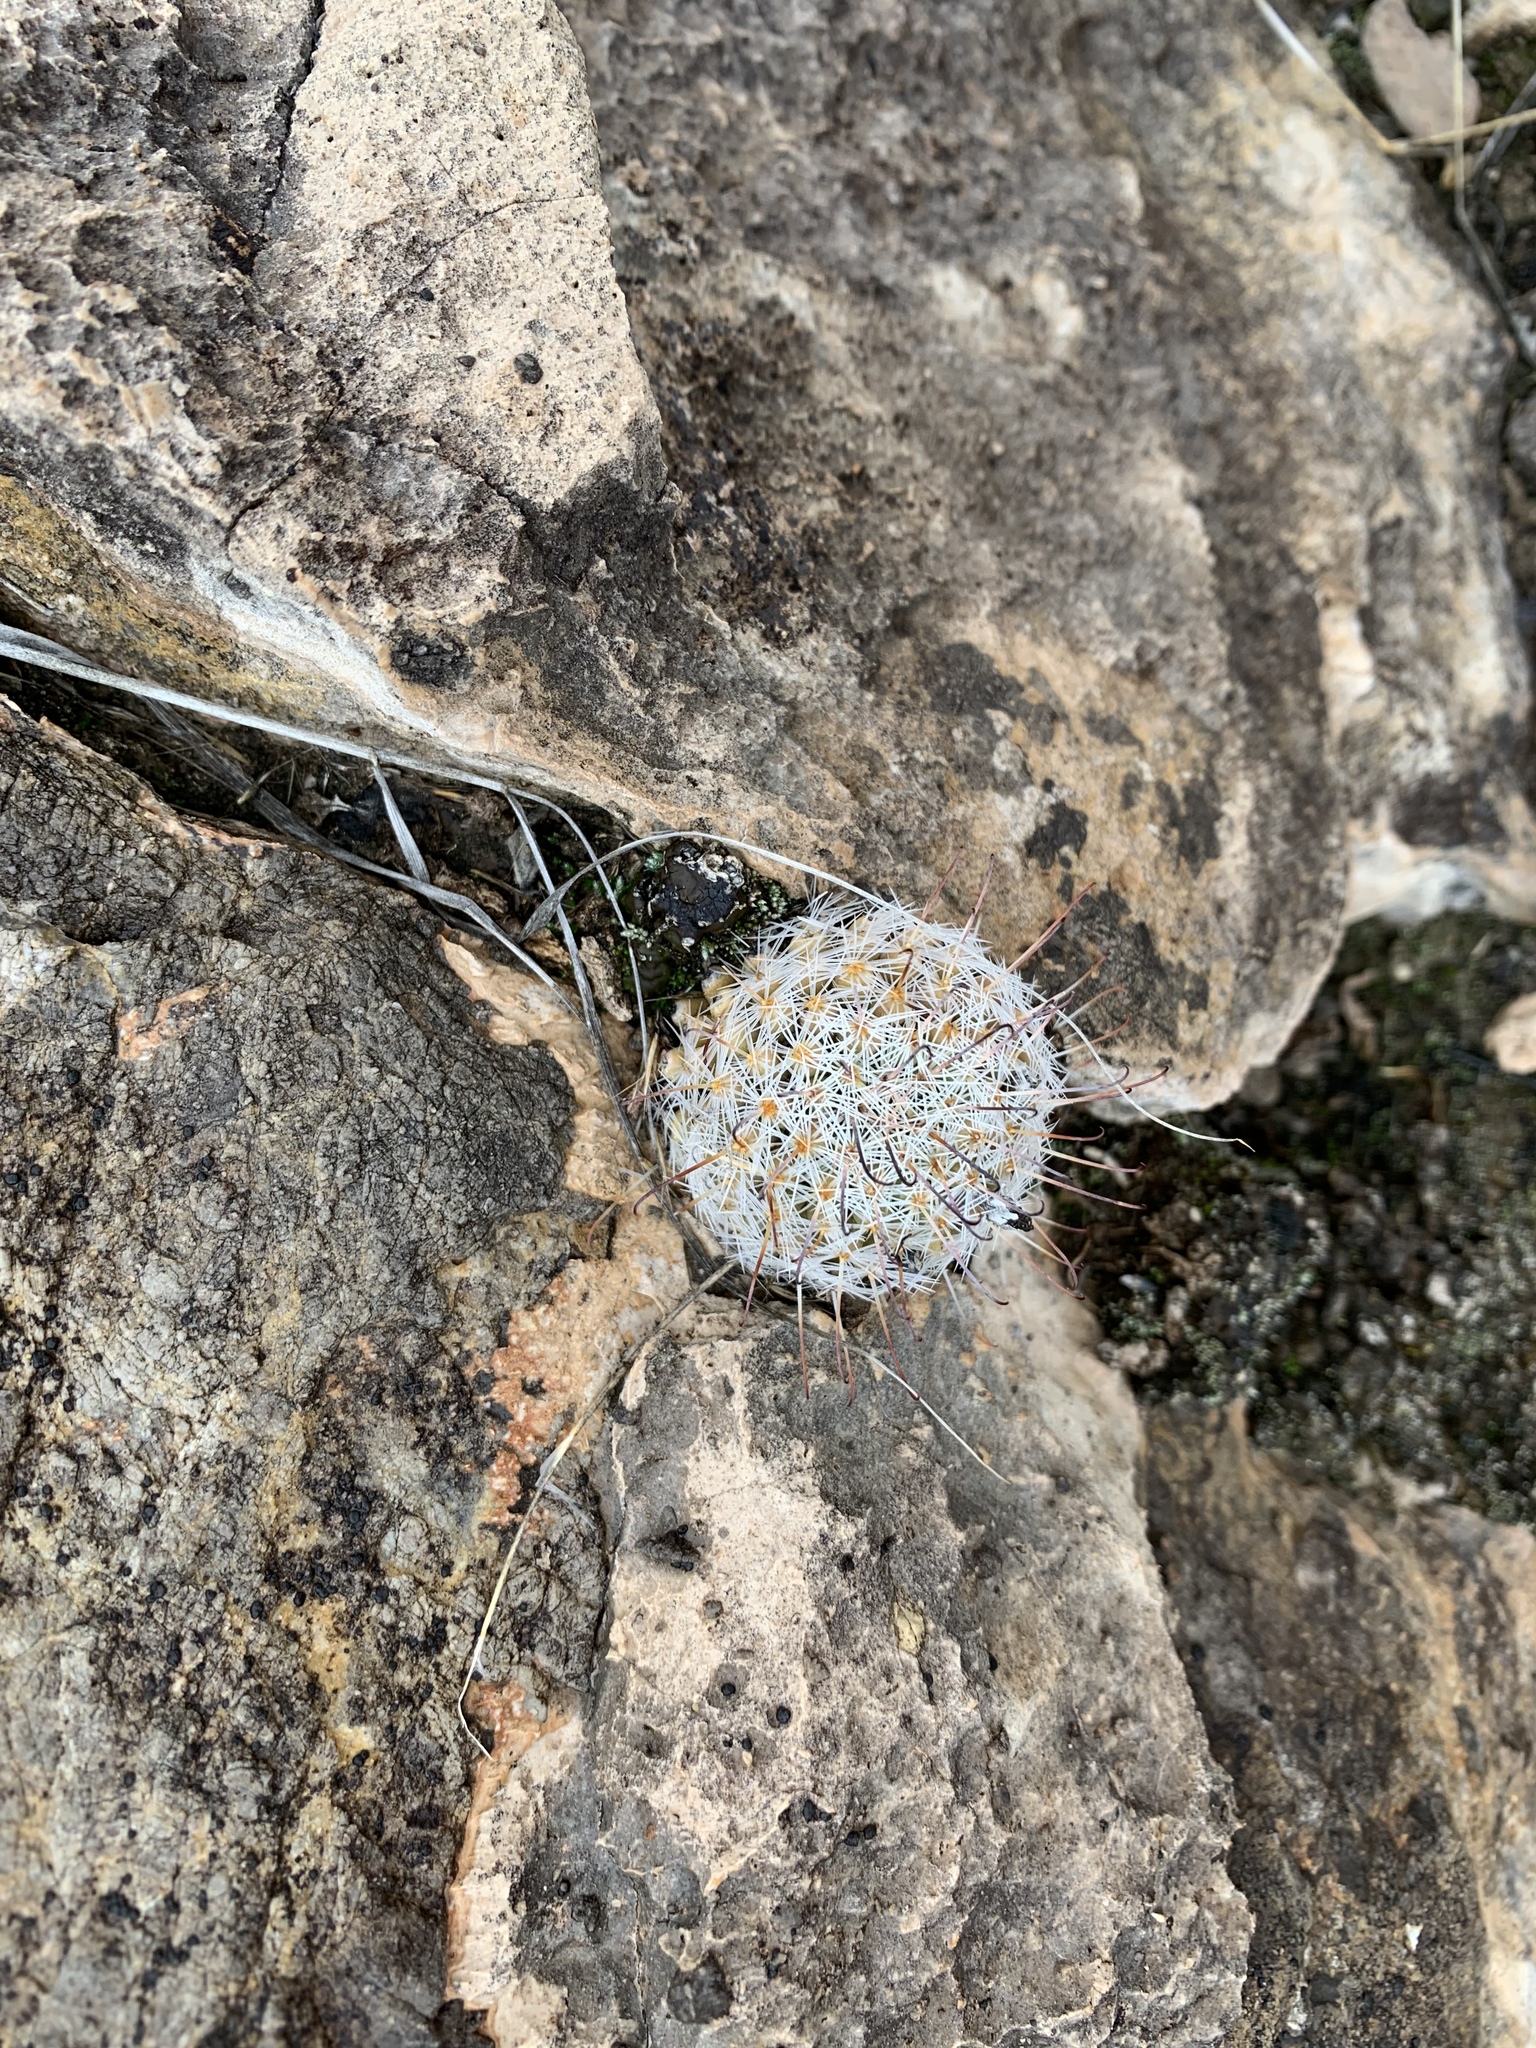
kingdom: Plantae
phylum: Tracheophyta
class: Magnoliopsida
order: Caryophyllales
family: Cactaceae
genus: Cochemiea
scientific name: Cochemiea grahamii
